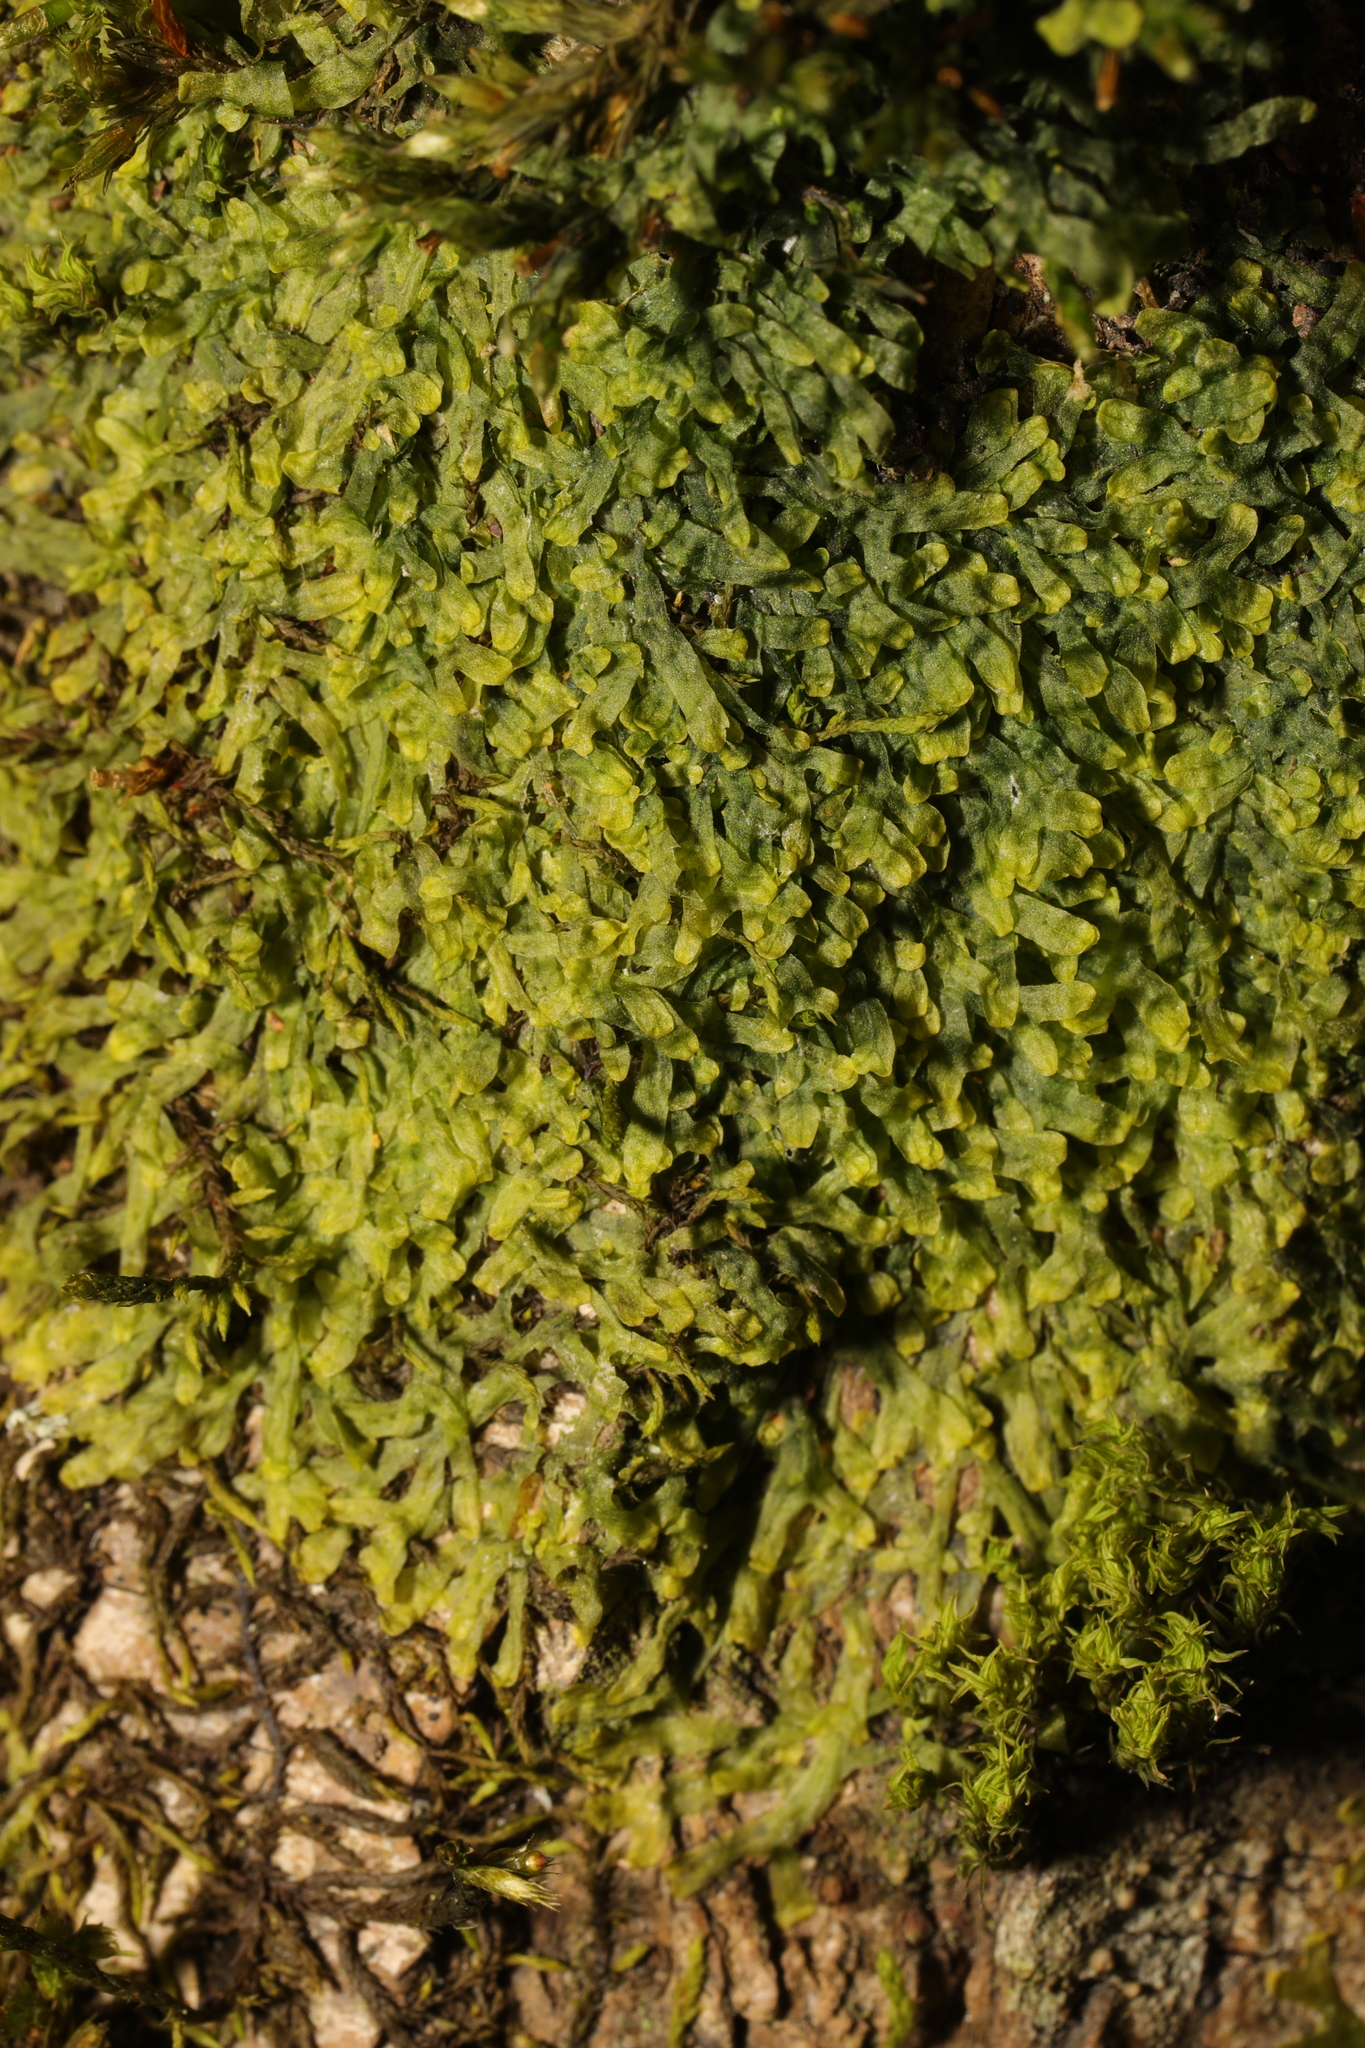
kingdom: Plantae
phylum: Marchantiophyta
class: Jungermanniopsida
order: Metzgeriales
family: Metzgeriaceae
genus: Metzgeria
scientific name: Metzgeria furcata
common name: Forked veilwort
